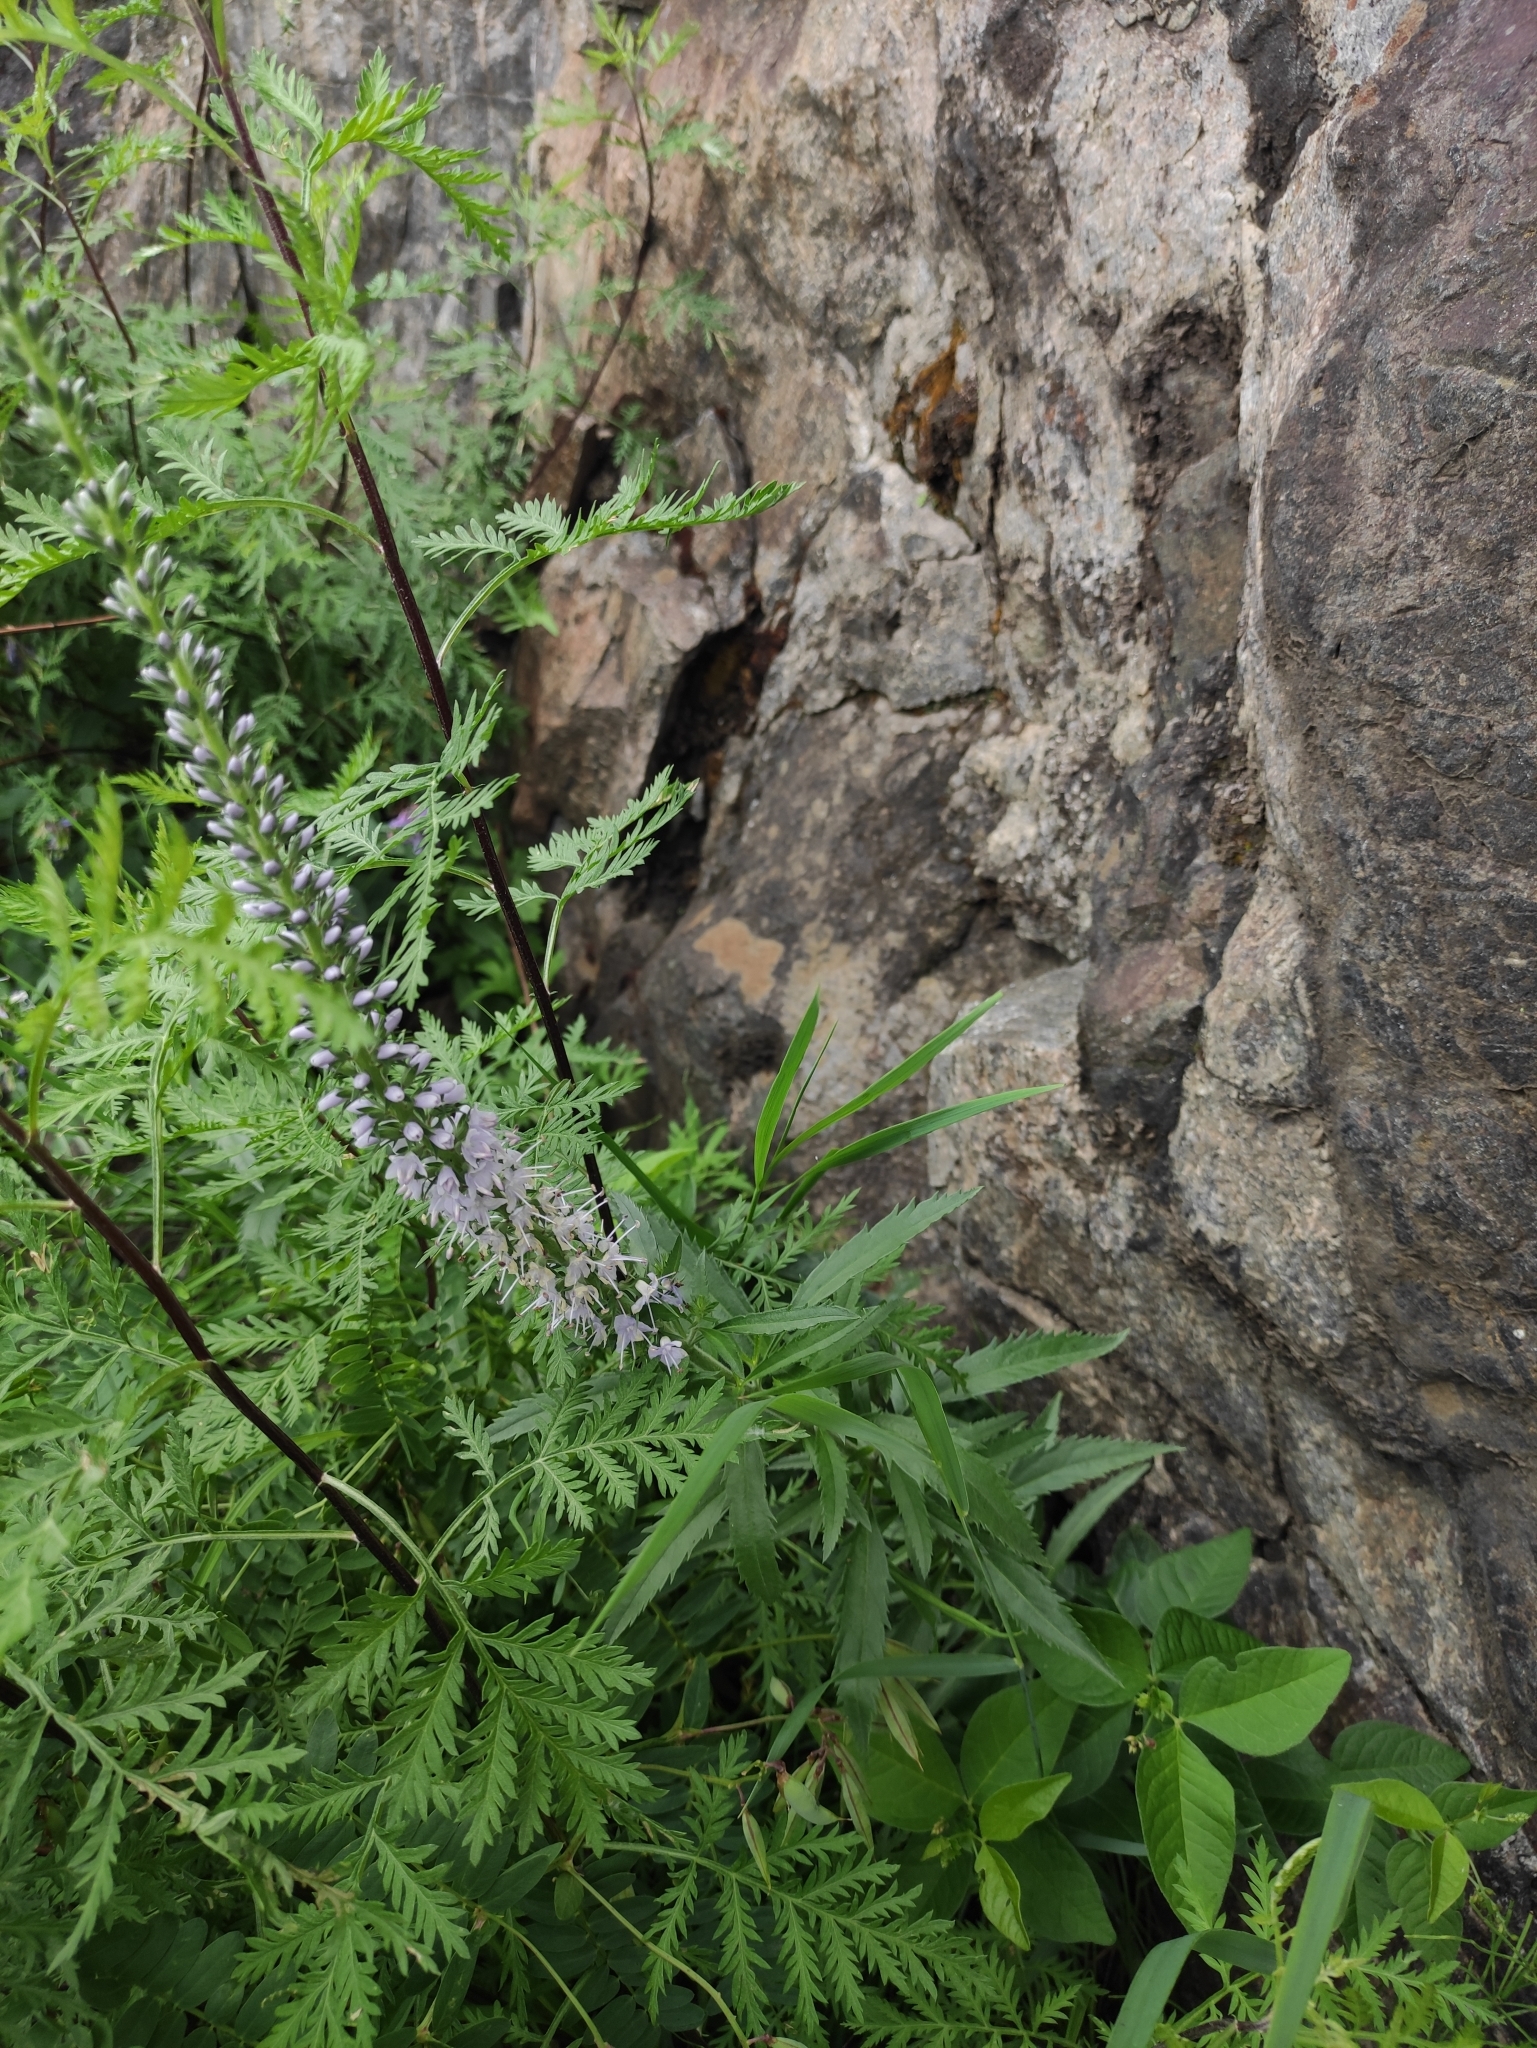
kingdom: Plantae
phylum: Tracheophyta
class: Magnoliopsida
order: Lamiales
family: Plantaginaceae
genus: Veronica
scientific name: Veronica longifolia
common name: Garden speedwell
